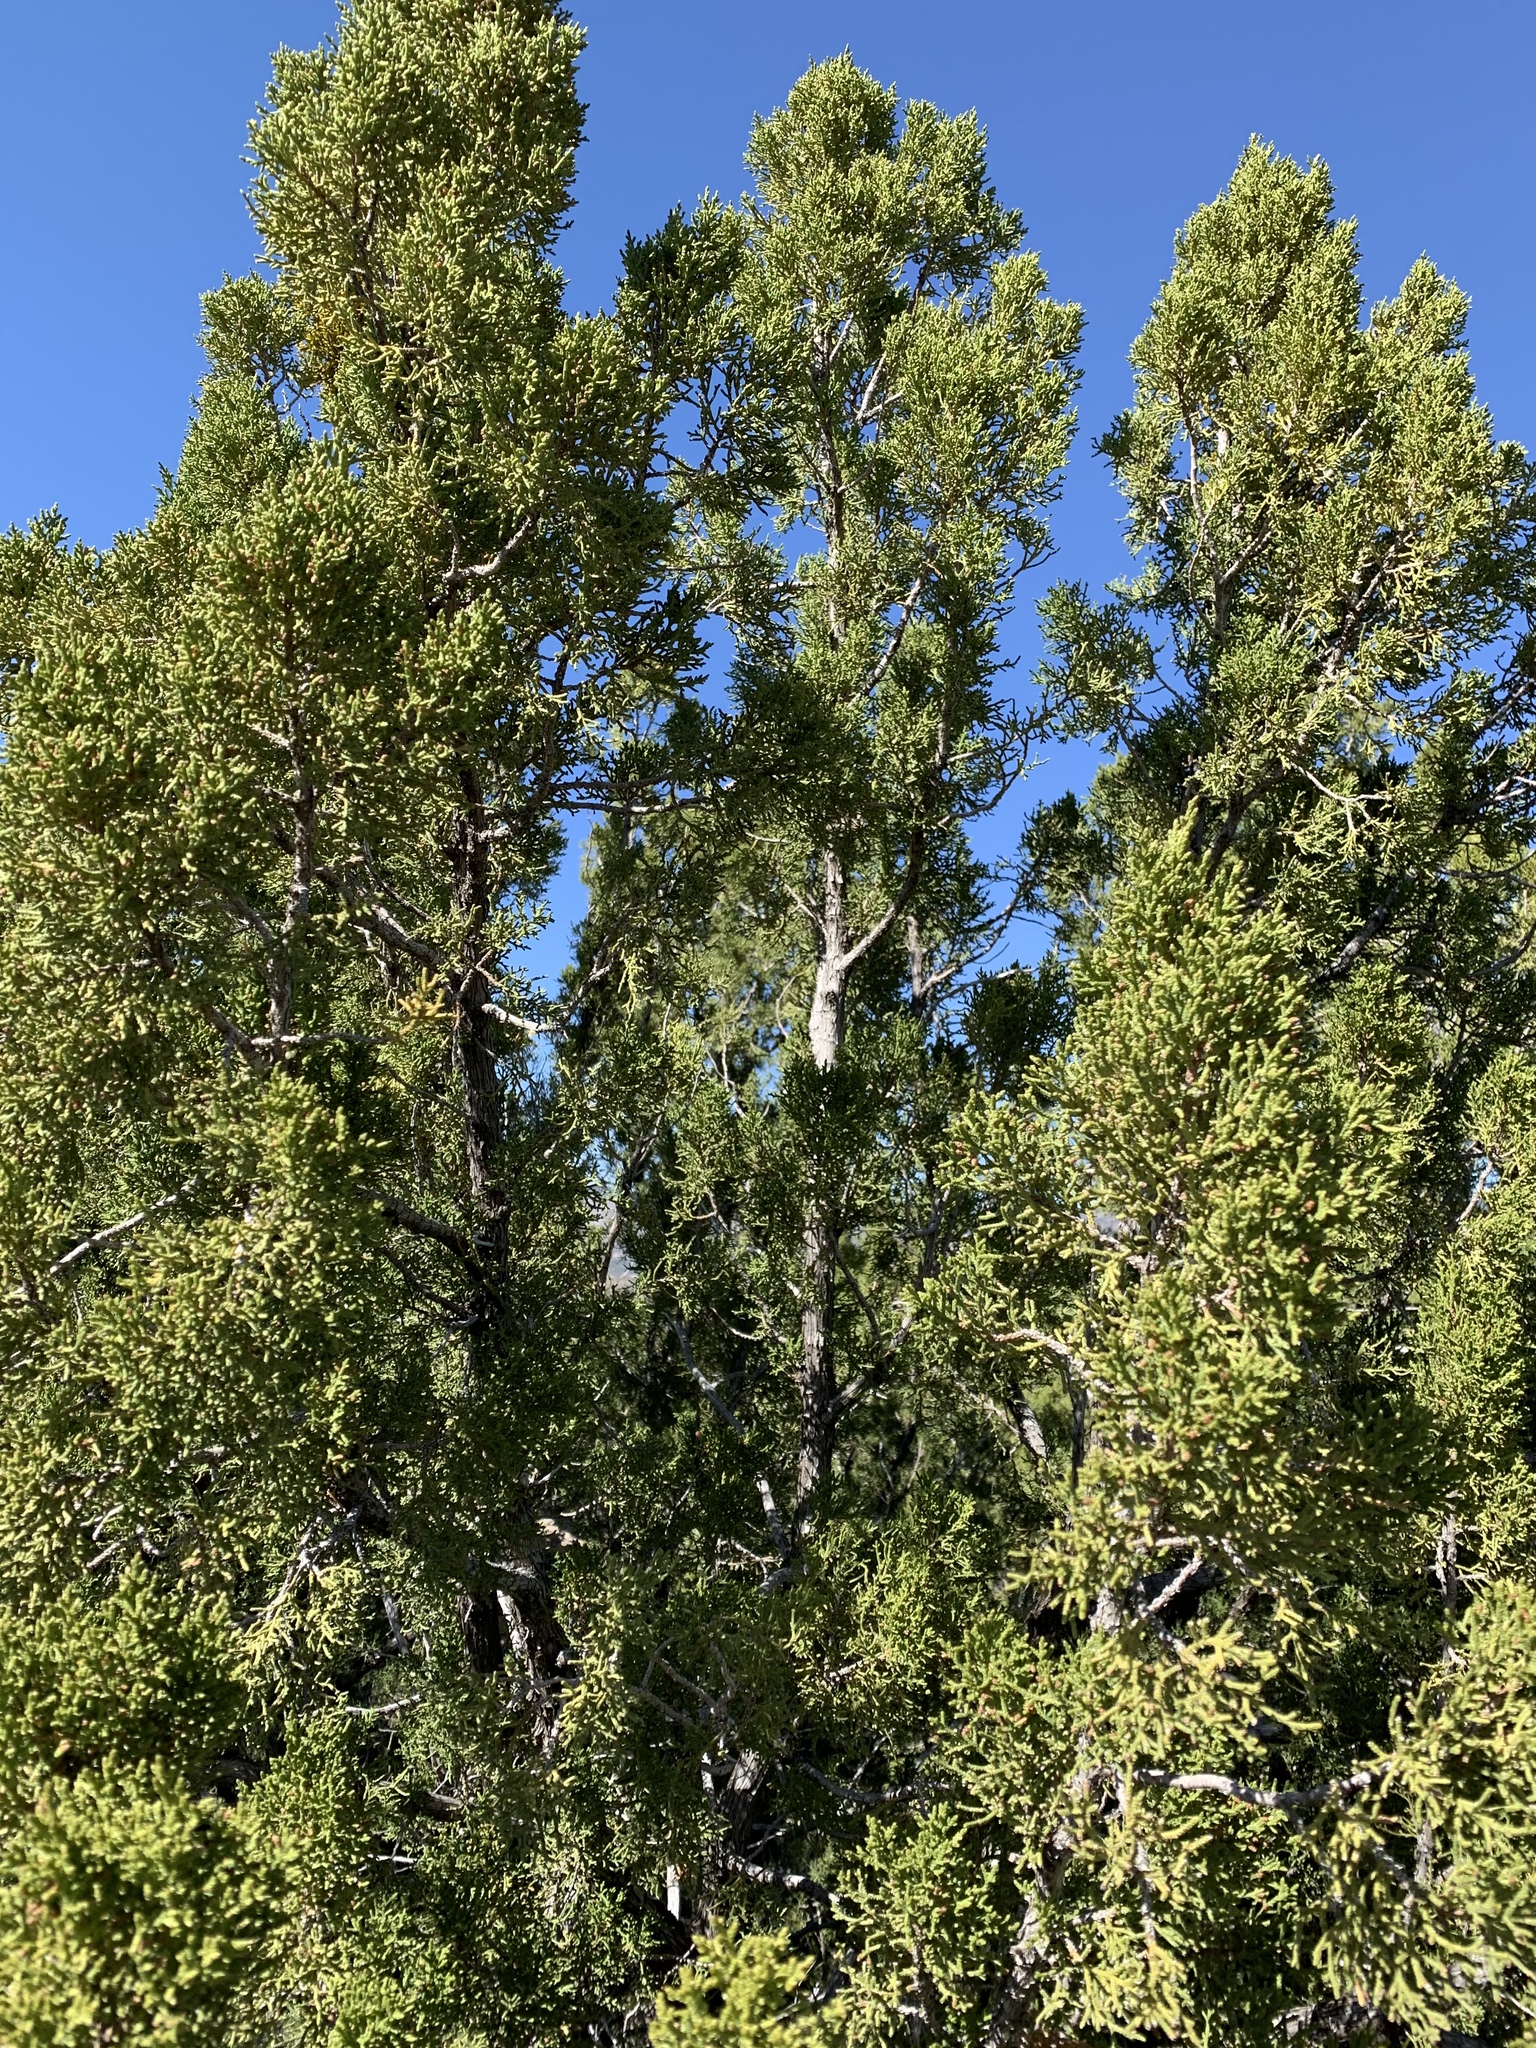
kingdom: Plantae
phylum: Tracheophyta
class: Pinopsida
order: Pinales
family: Cupressaceae
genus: Juniperus
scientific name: Juniperus monosperma
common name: One-seed juniper
